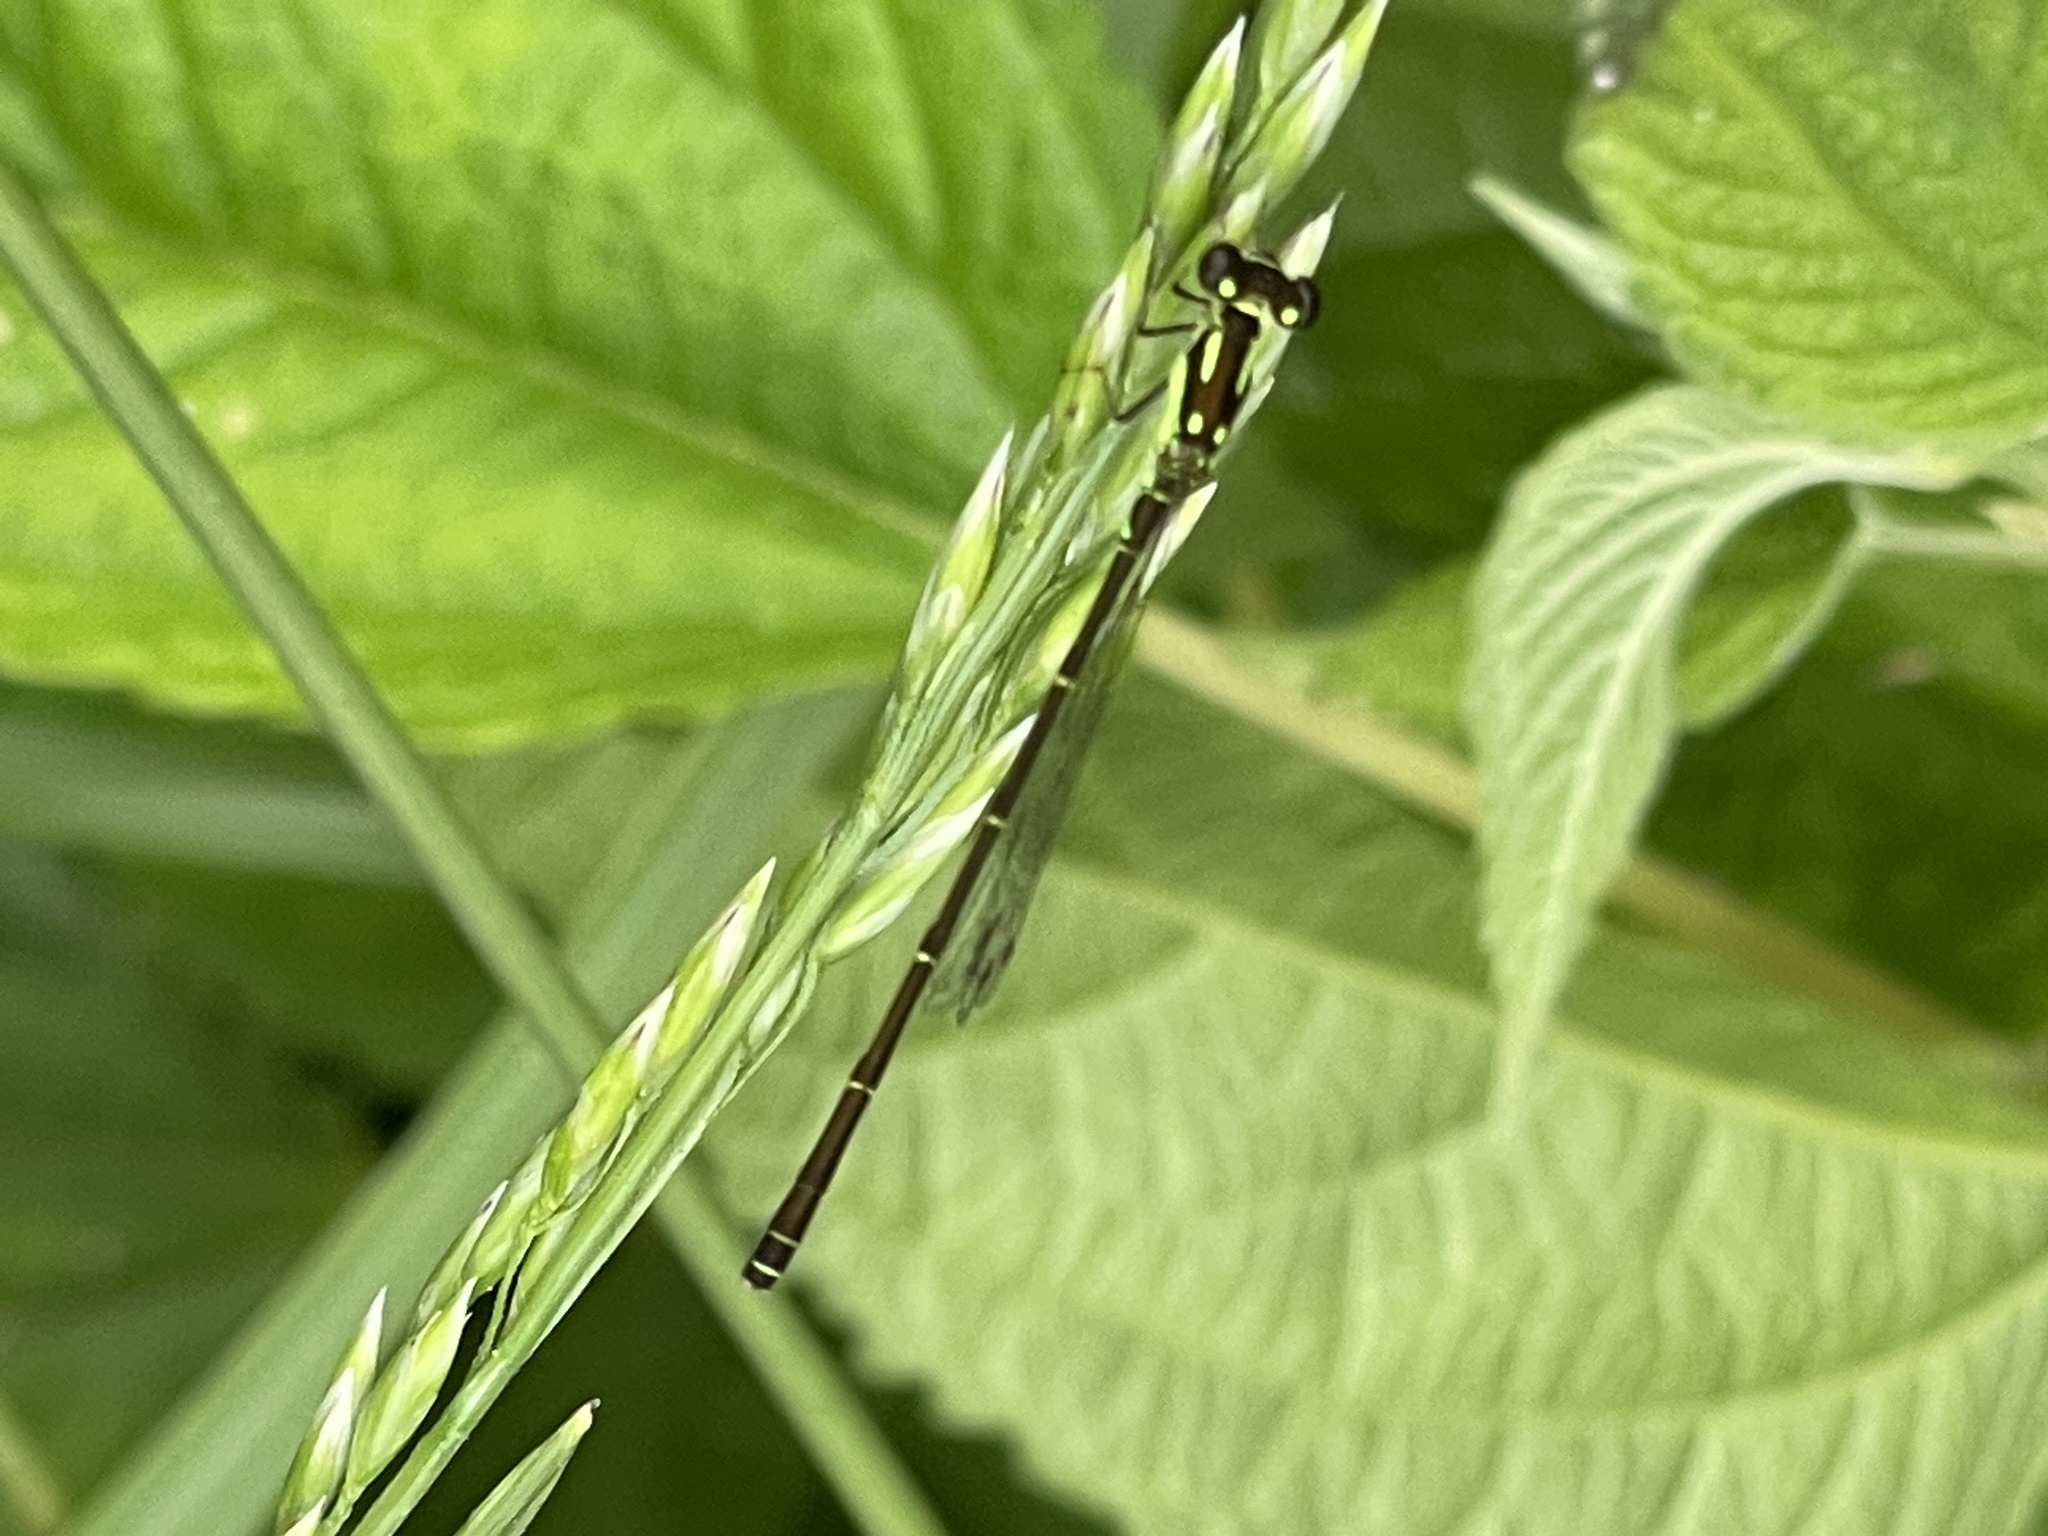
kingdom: Animalia
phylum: Arthropoda
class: Insecta
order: Odonata
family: Coenagrionidae
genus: Ischnura
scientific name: Ischnura posita
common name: Fragile forktail
